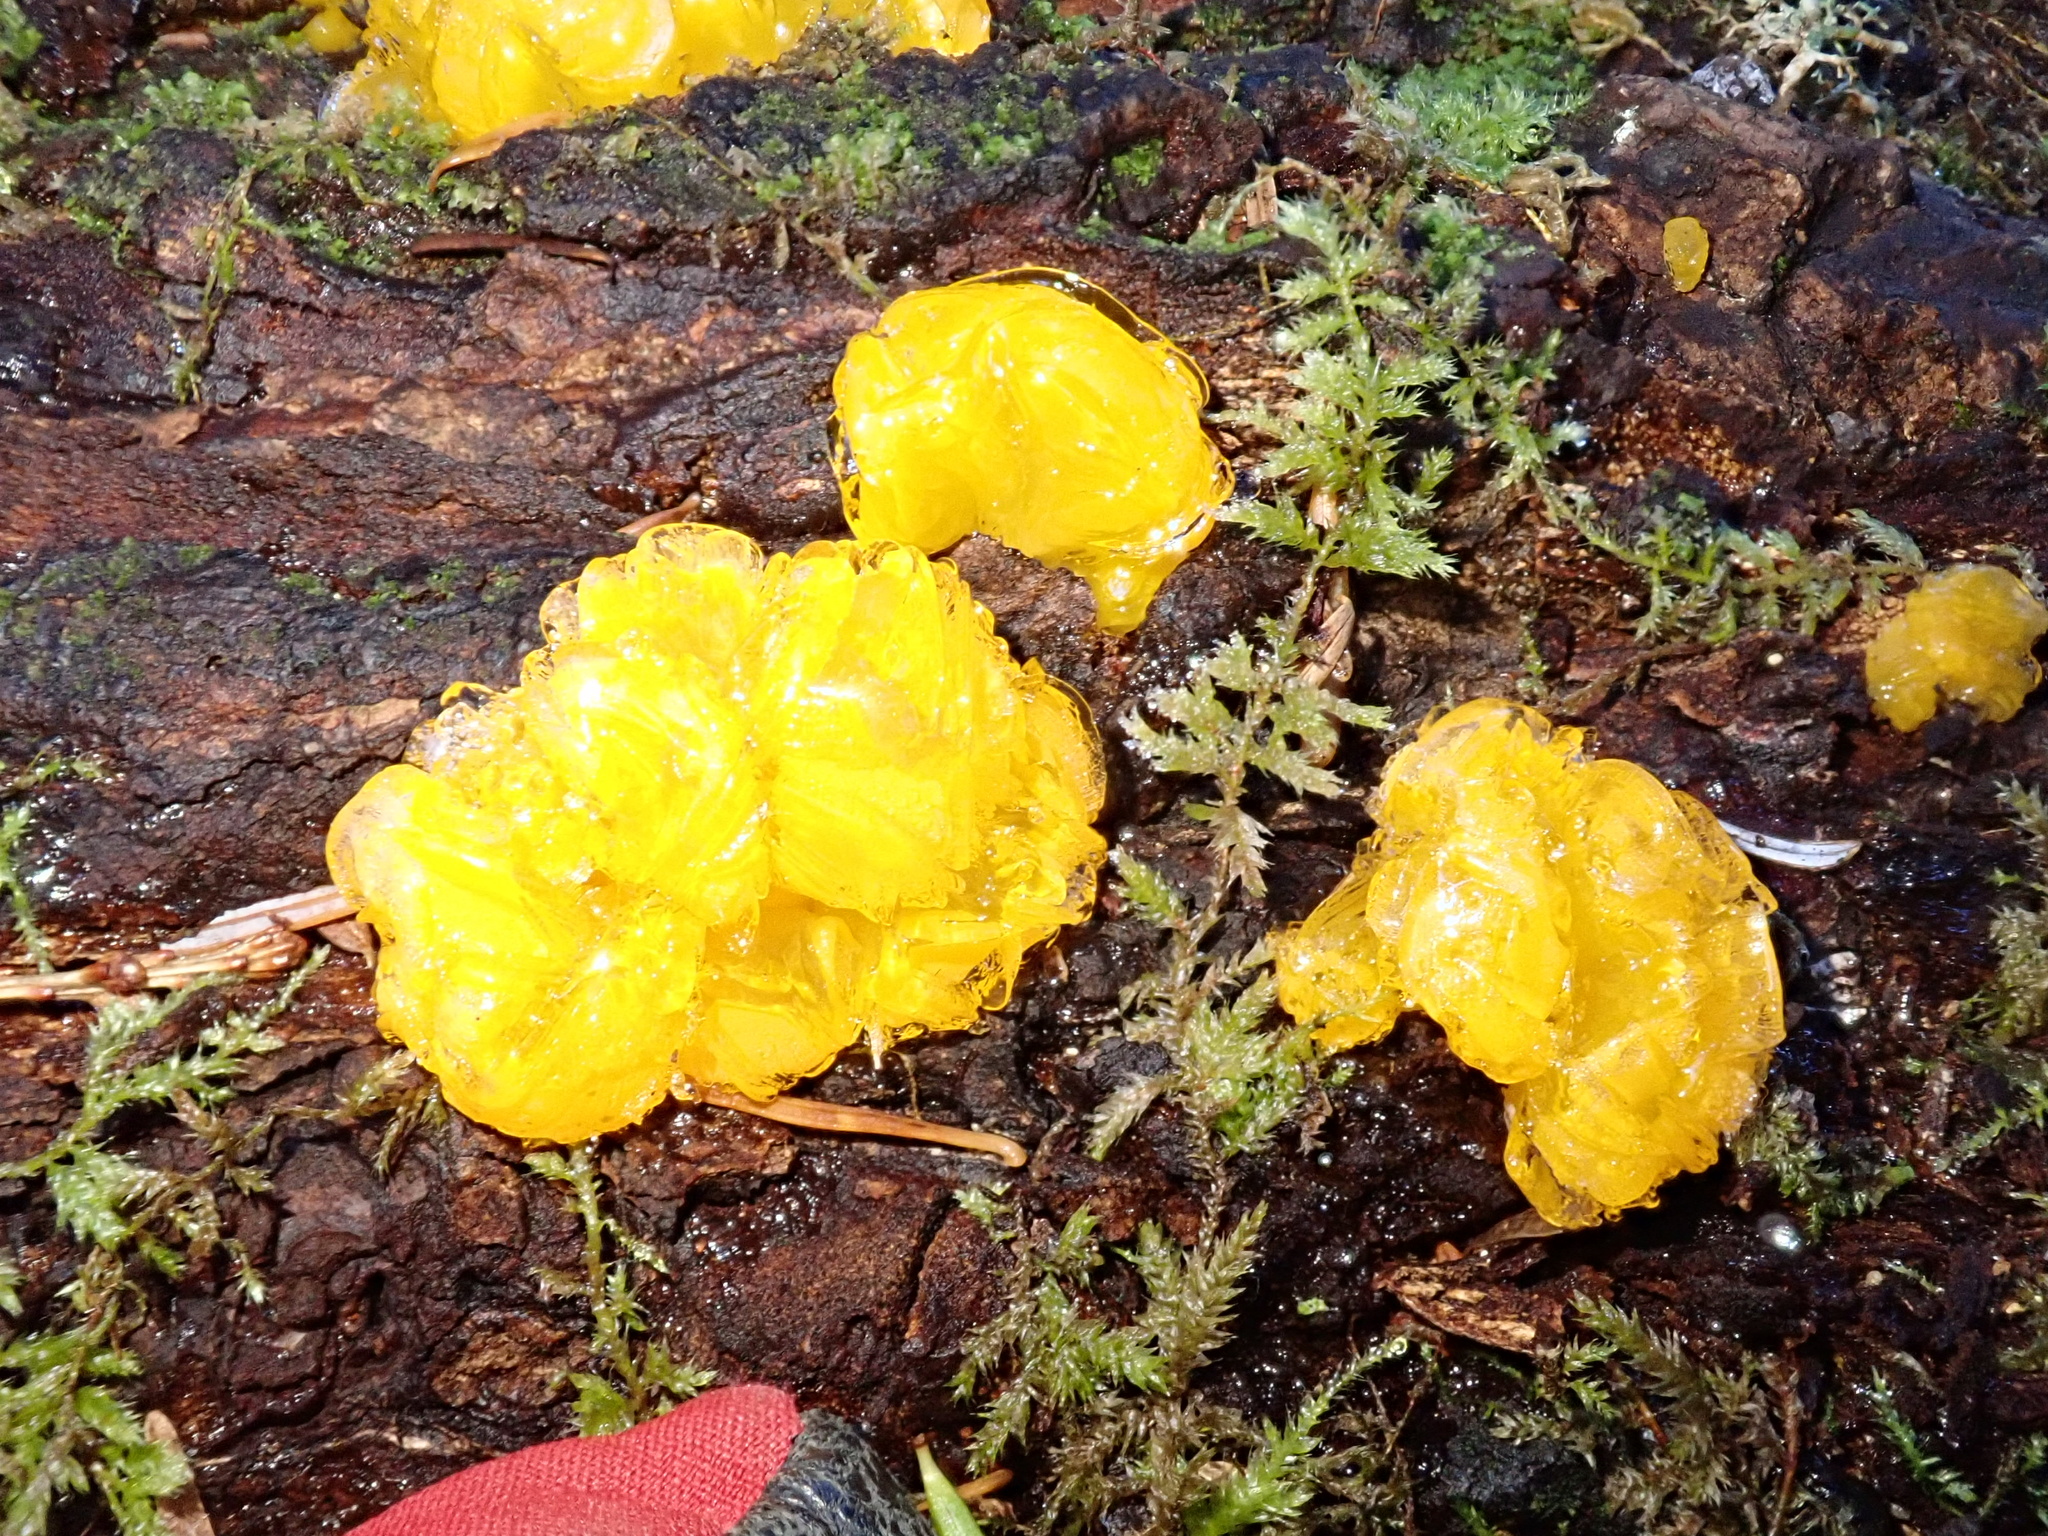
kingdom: Fungi
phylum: Basidiomycota
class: Dacrymycetes
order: Dacrymycetales
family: Dacrymycetaceae
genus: Dacrymyces
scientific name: Dacrymyces chrysospermus
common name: Orange jelly spot
